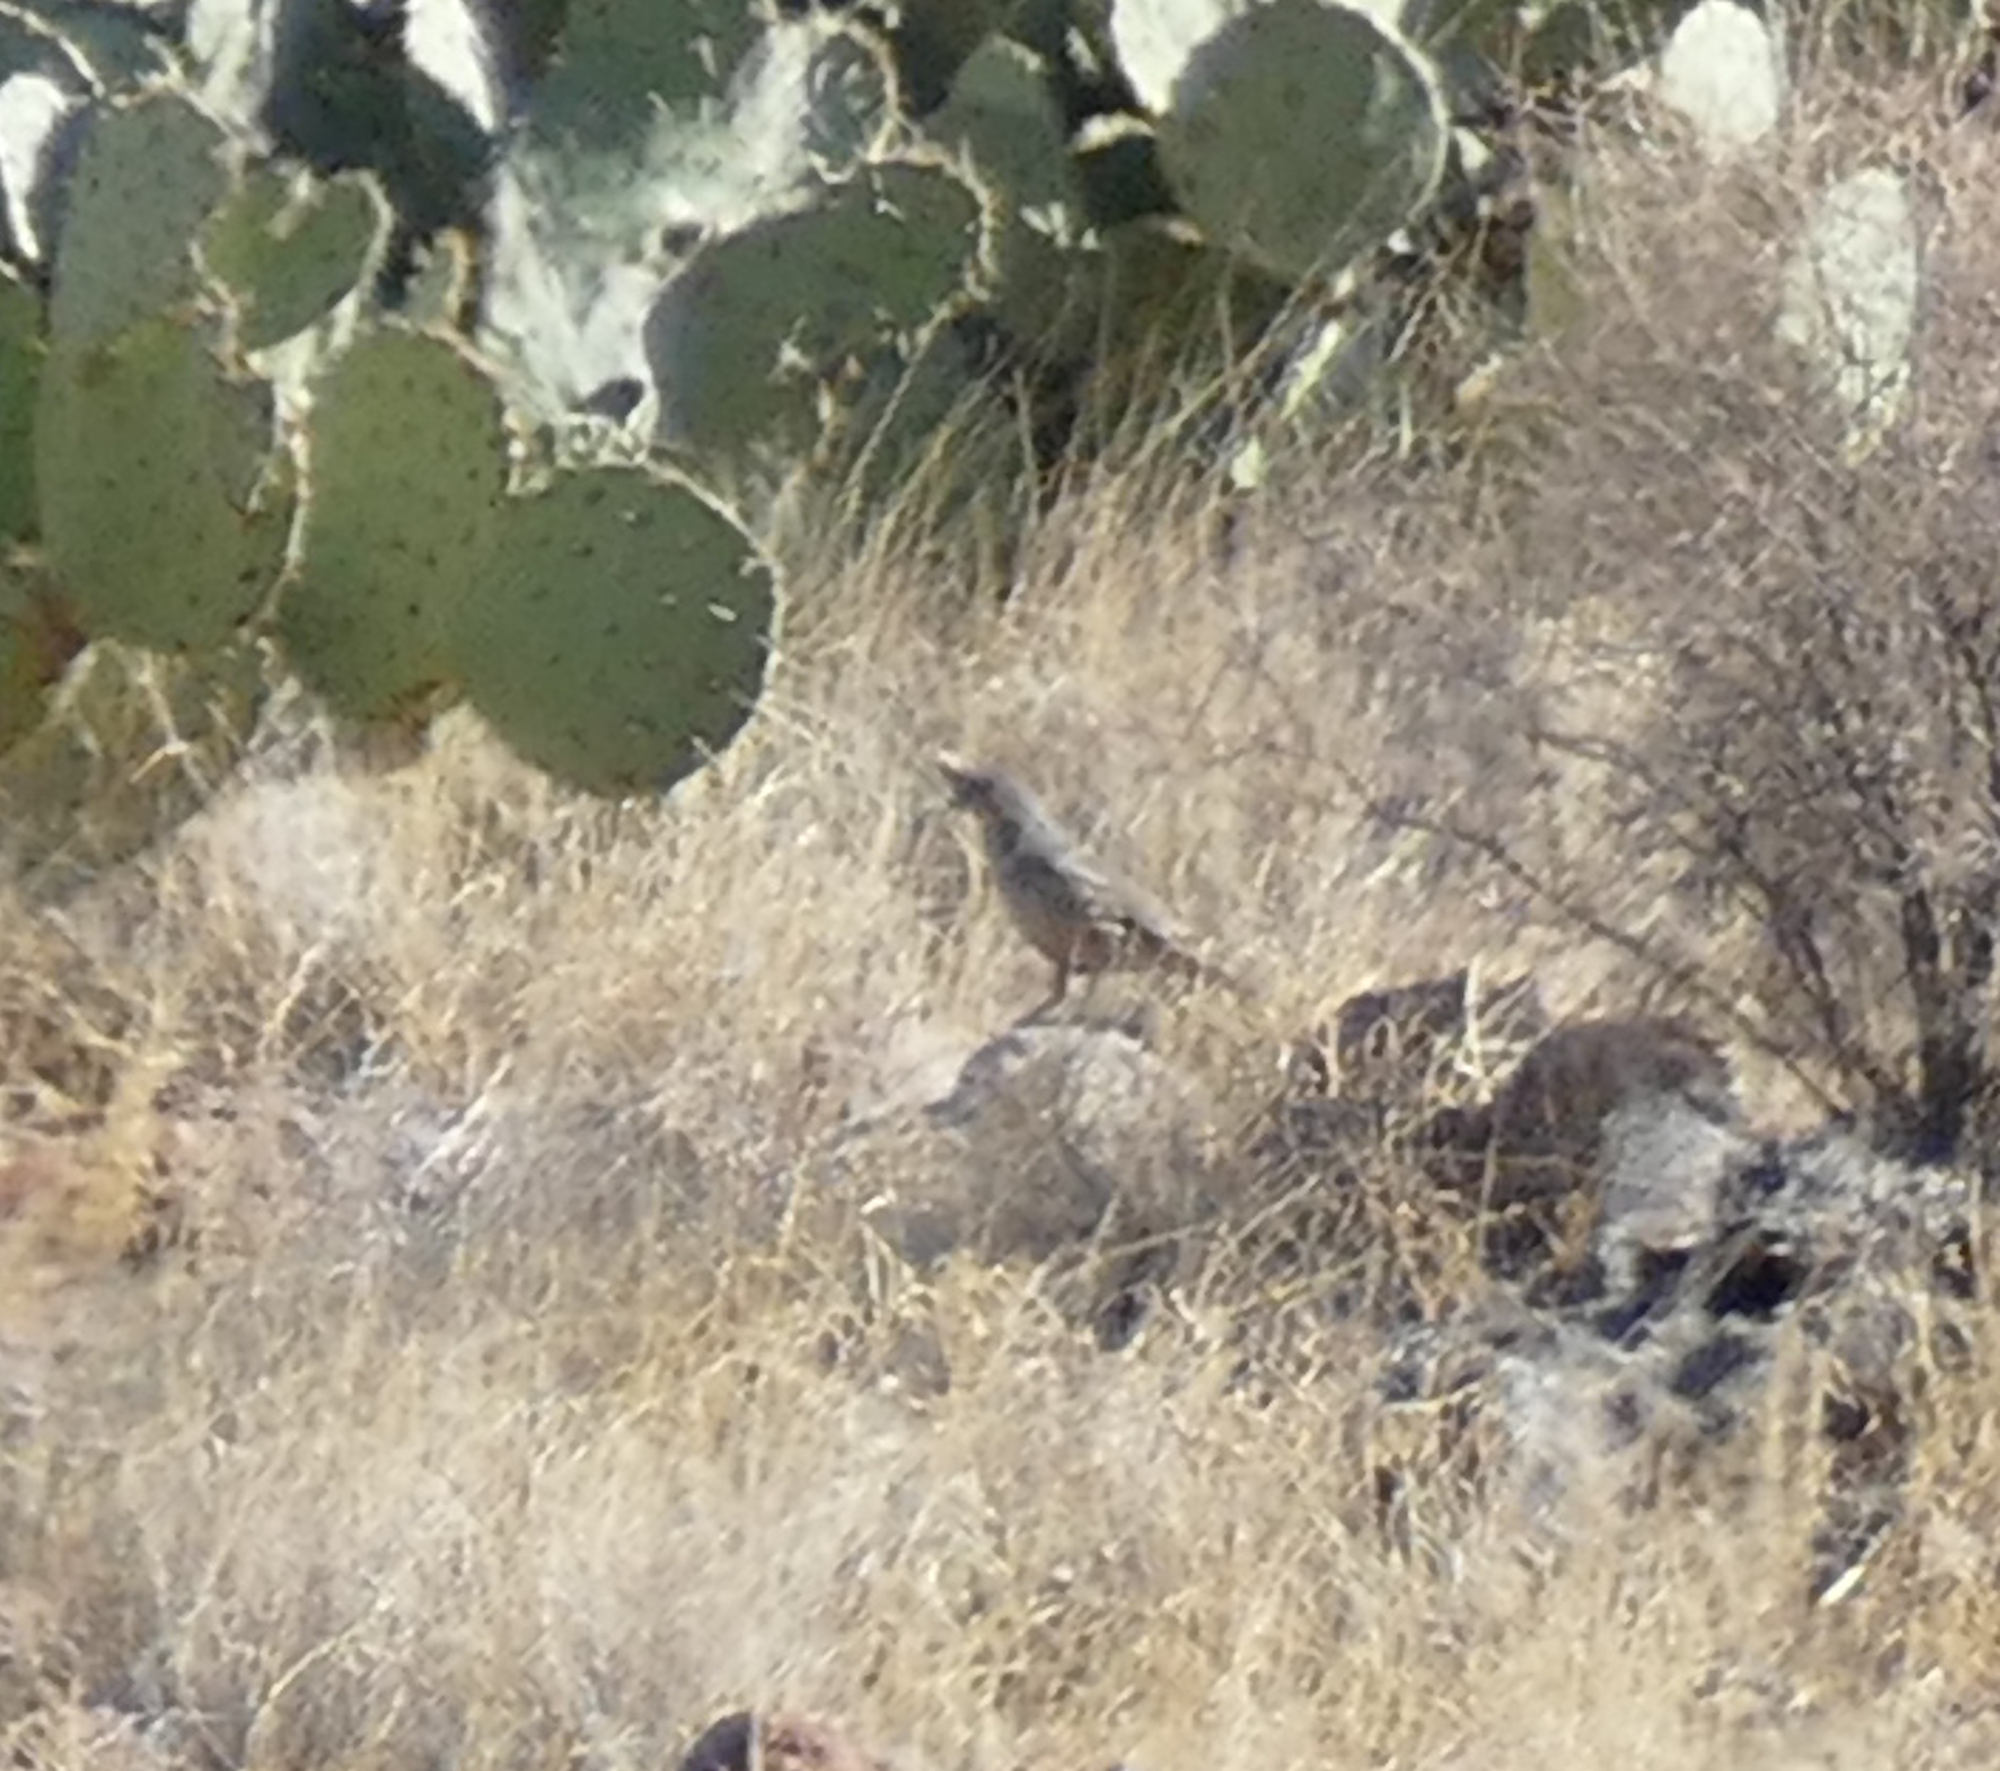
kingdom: Animalia
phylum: Chordata
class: Aves
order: Galliformes
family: Odontophoridae
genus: Callipepla
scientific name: Callipepla squamata
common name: Scaled quail
